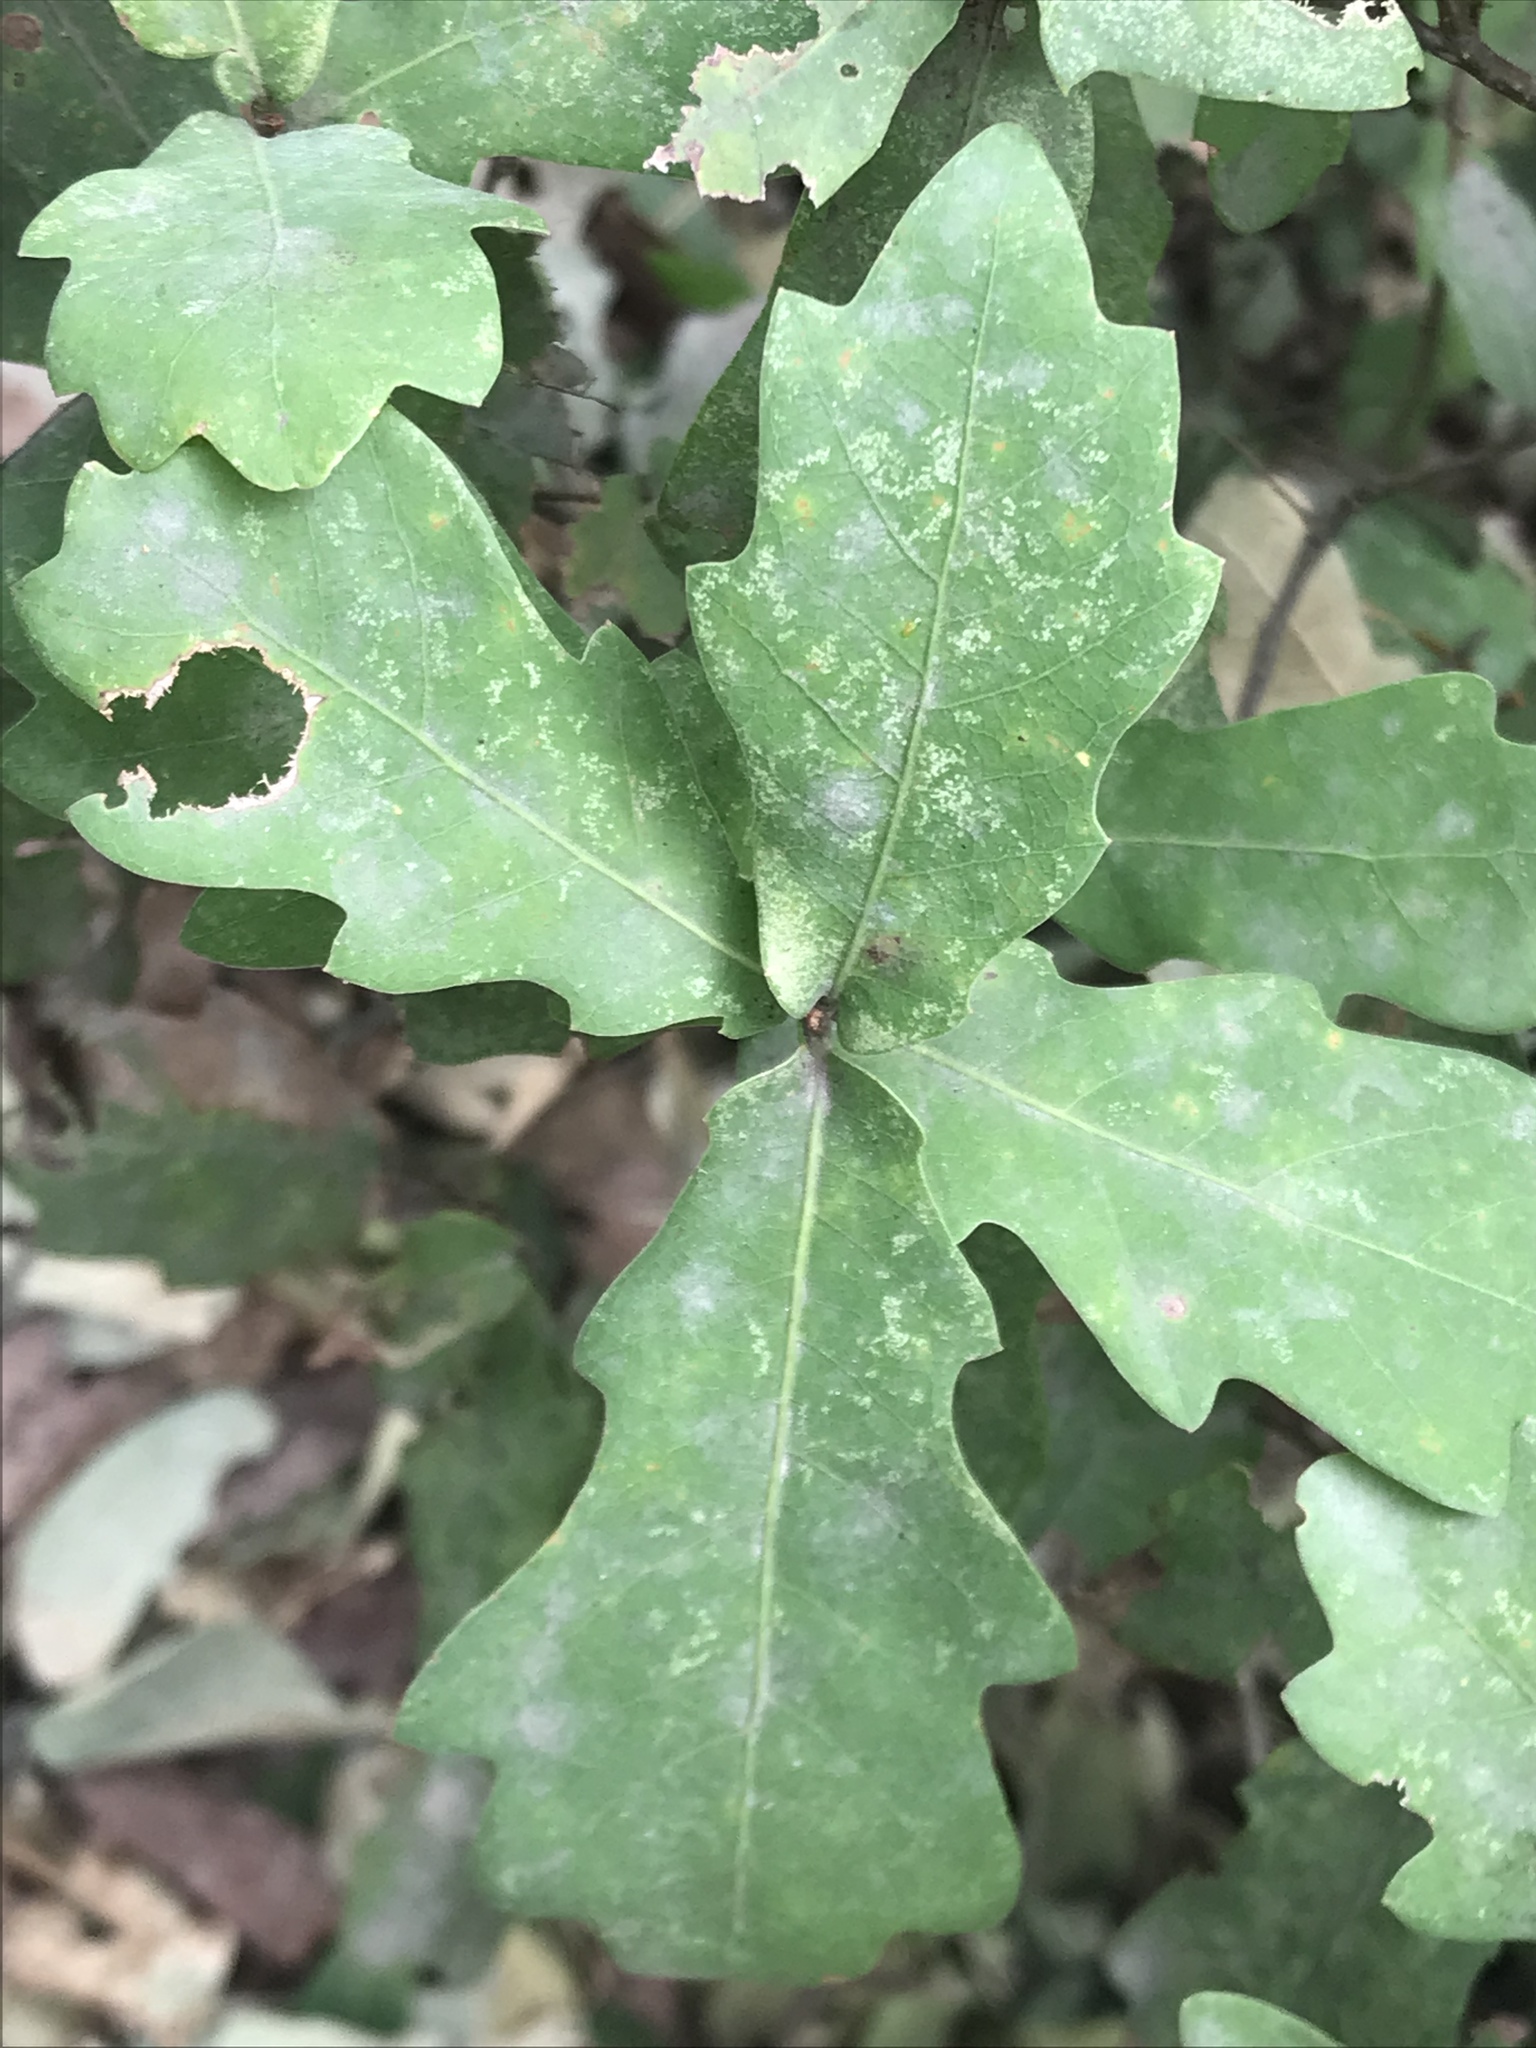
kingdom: Plantae
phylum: Tracheophyta
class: Magnoliopsida
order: Fagales
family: Fagaceae
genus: Quercus
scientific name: Quercus porphyrogenita
